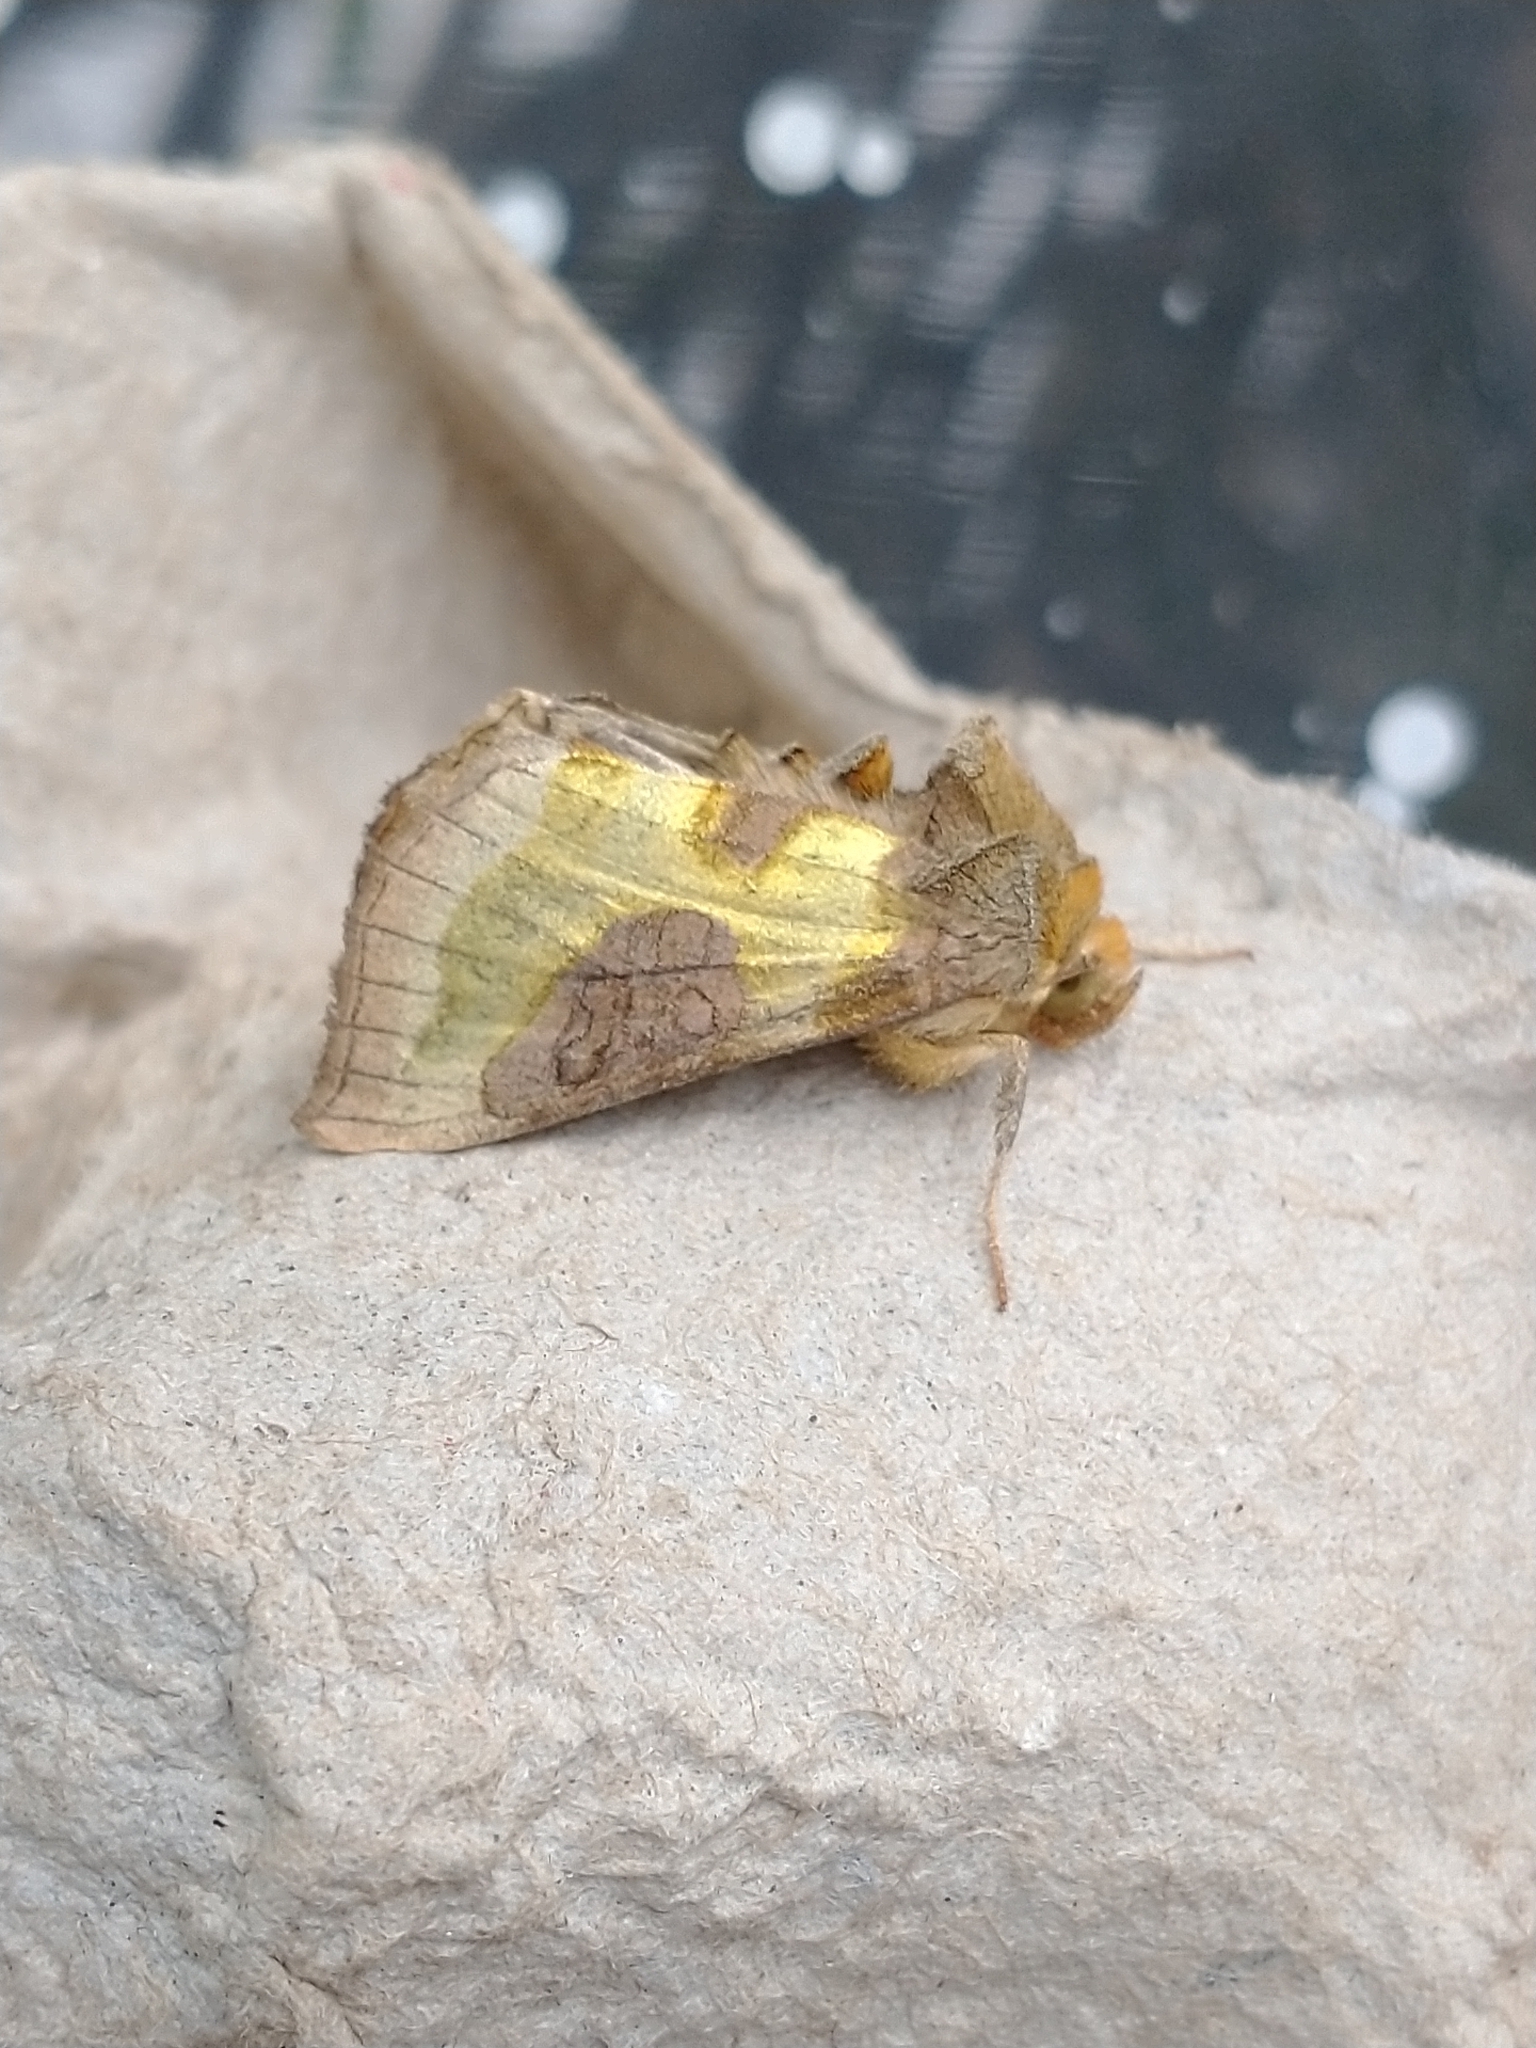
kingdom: Animalia
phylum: Arthropoda
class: Insecta
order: Lepidoptera
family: Noctuidae
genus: Diachrysia
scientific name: Diachrysia chrysitis
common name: Burnished brass
